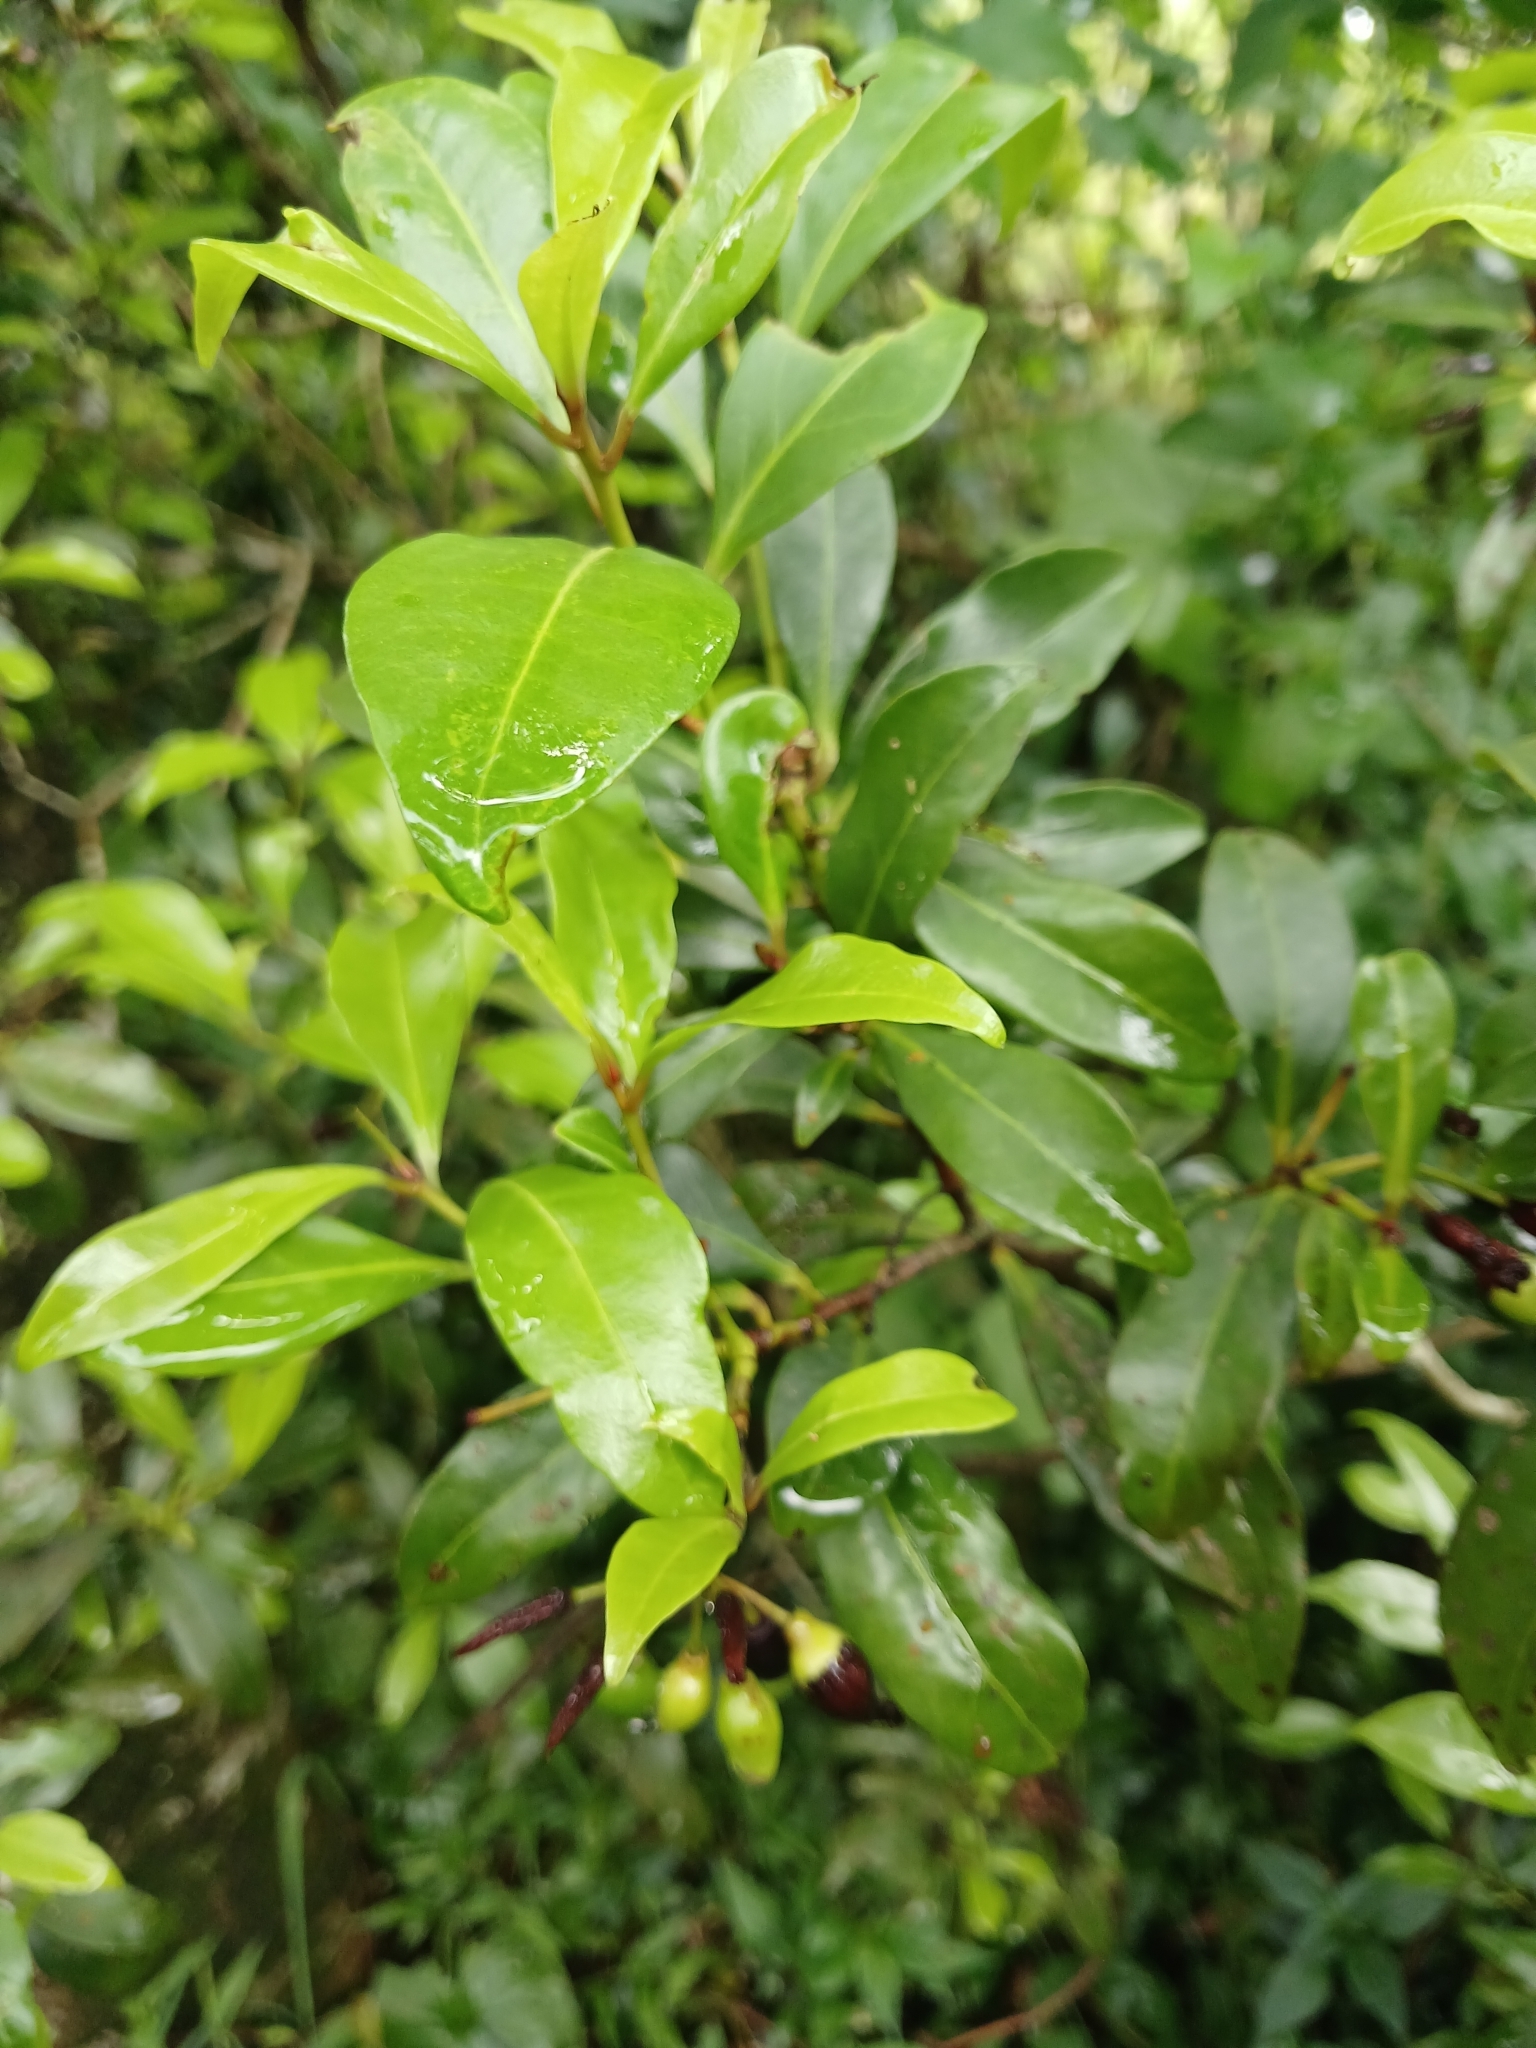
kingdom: Plantae
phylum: Tracheophyta
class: Magnoliopsida
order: Malvales
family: Thymelaeaceae
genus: Peddiea
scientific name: Peddiea africana
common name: Poison olive
